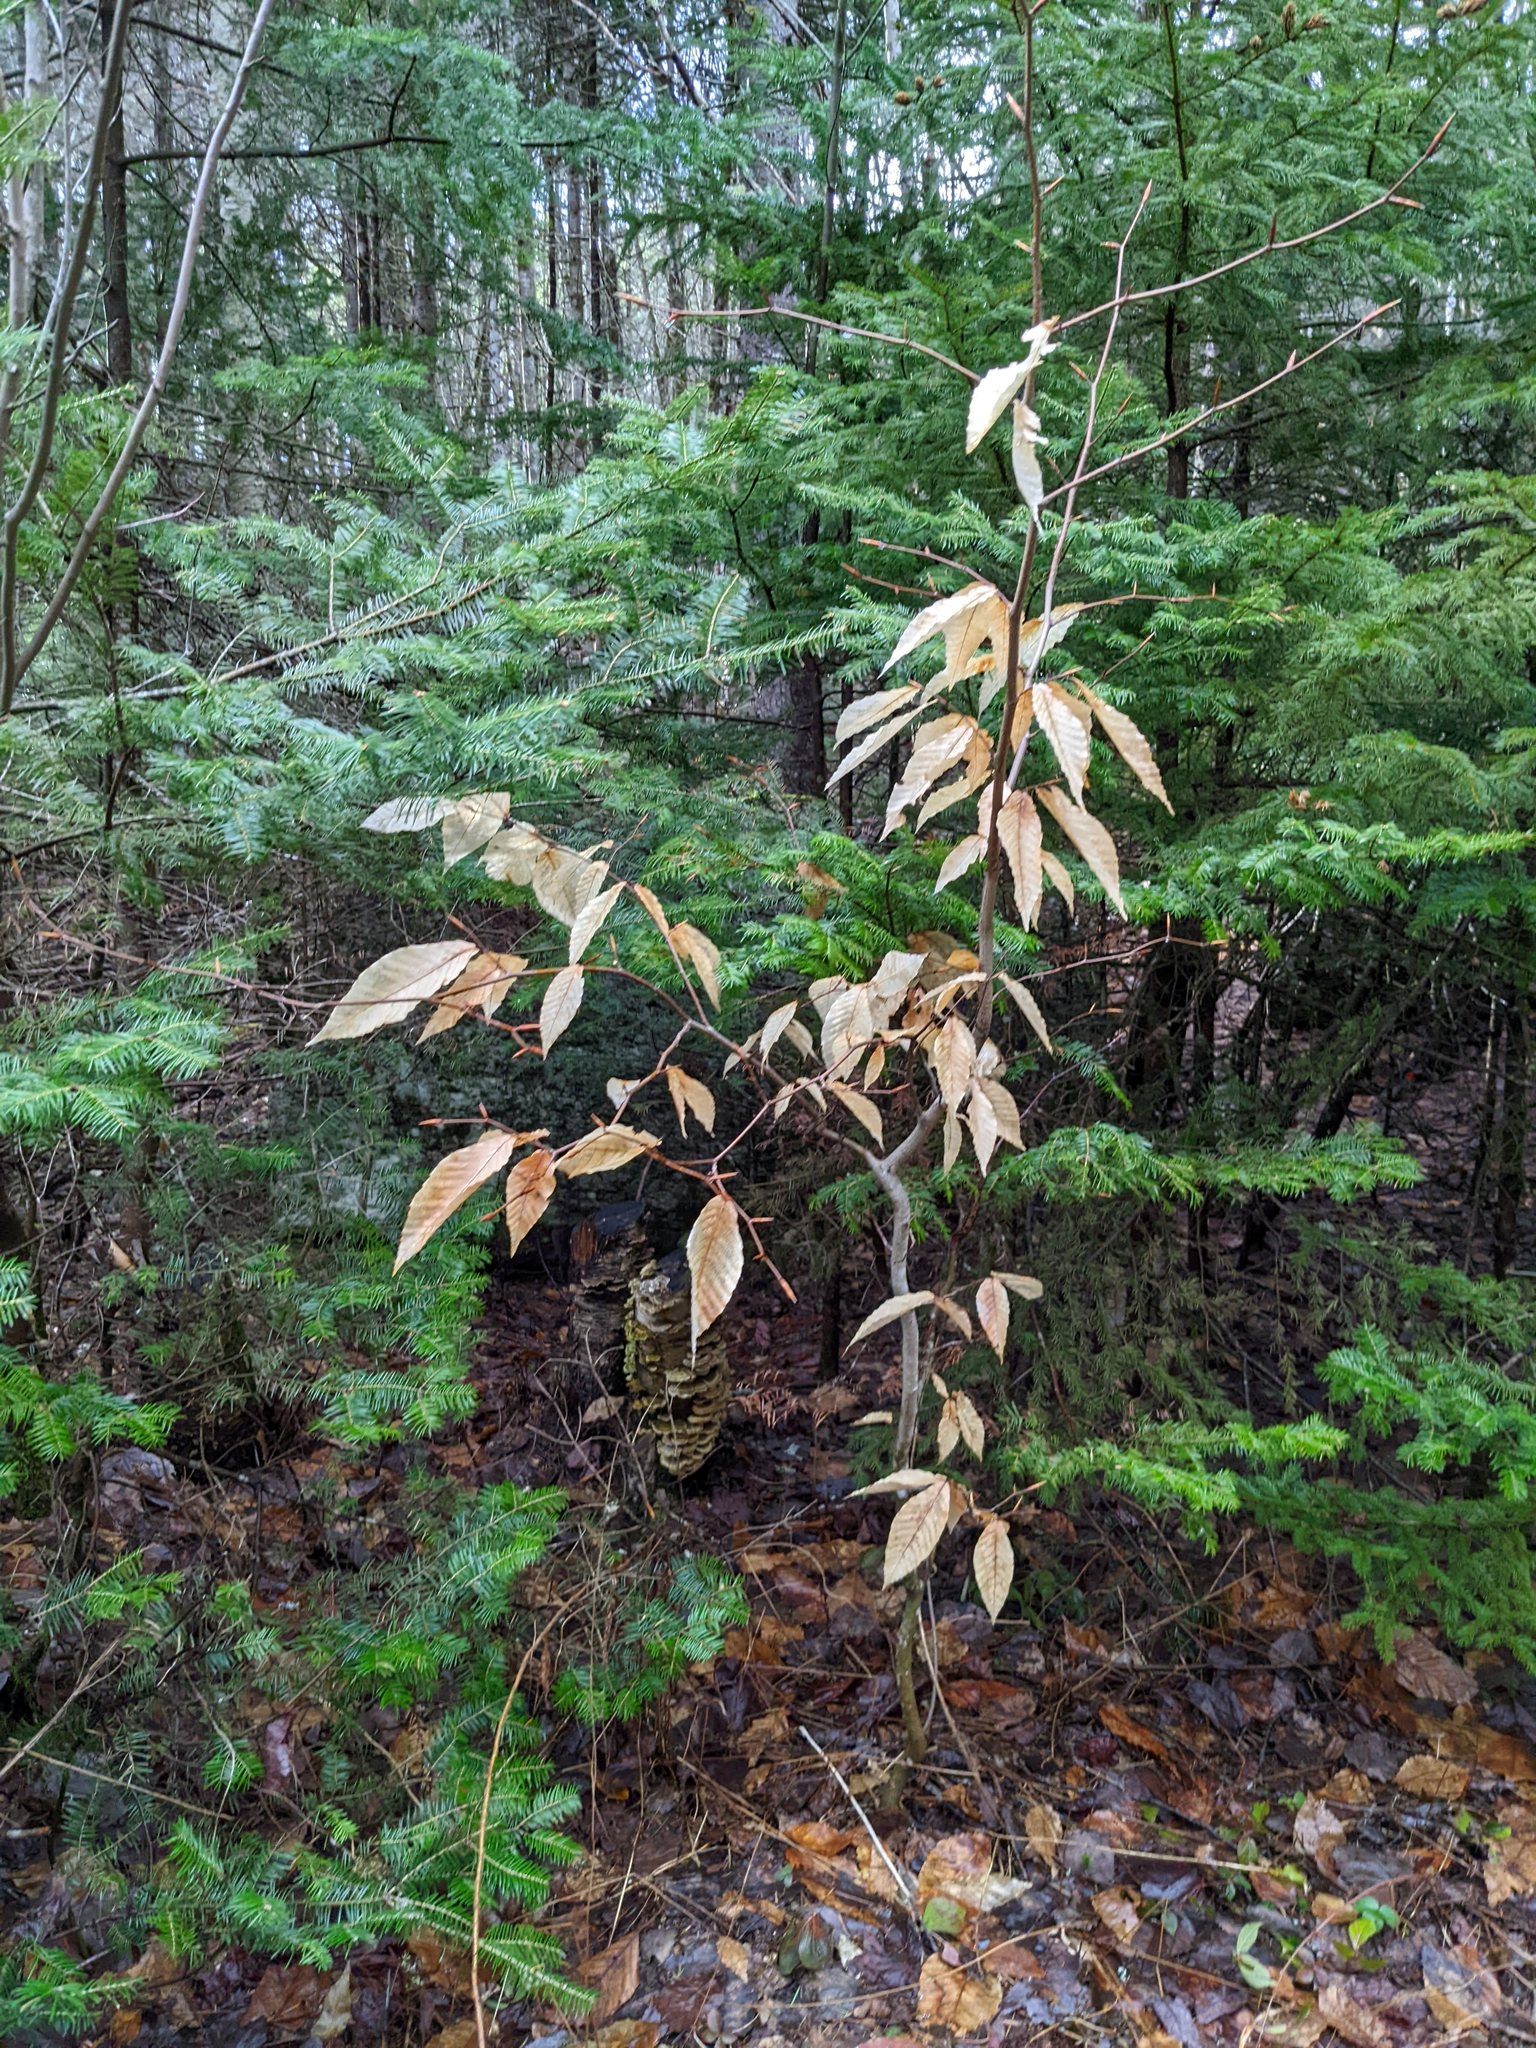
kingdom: Plantae
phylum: Tracheophyta
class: Magnoliopsida
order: Fagales
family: Fagaceae
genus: Fagus
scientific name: Fagus grandifolia
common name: American beech
